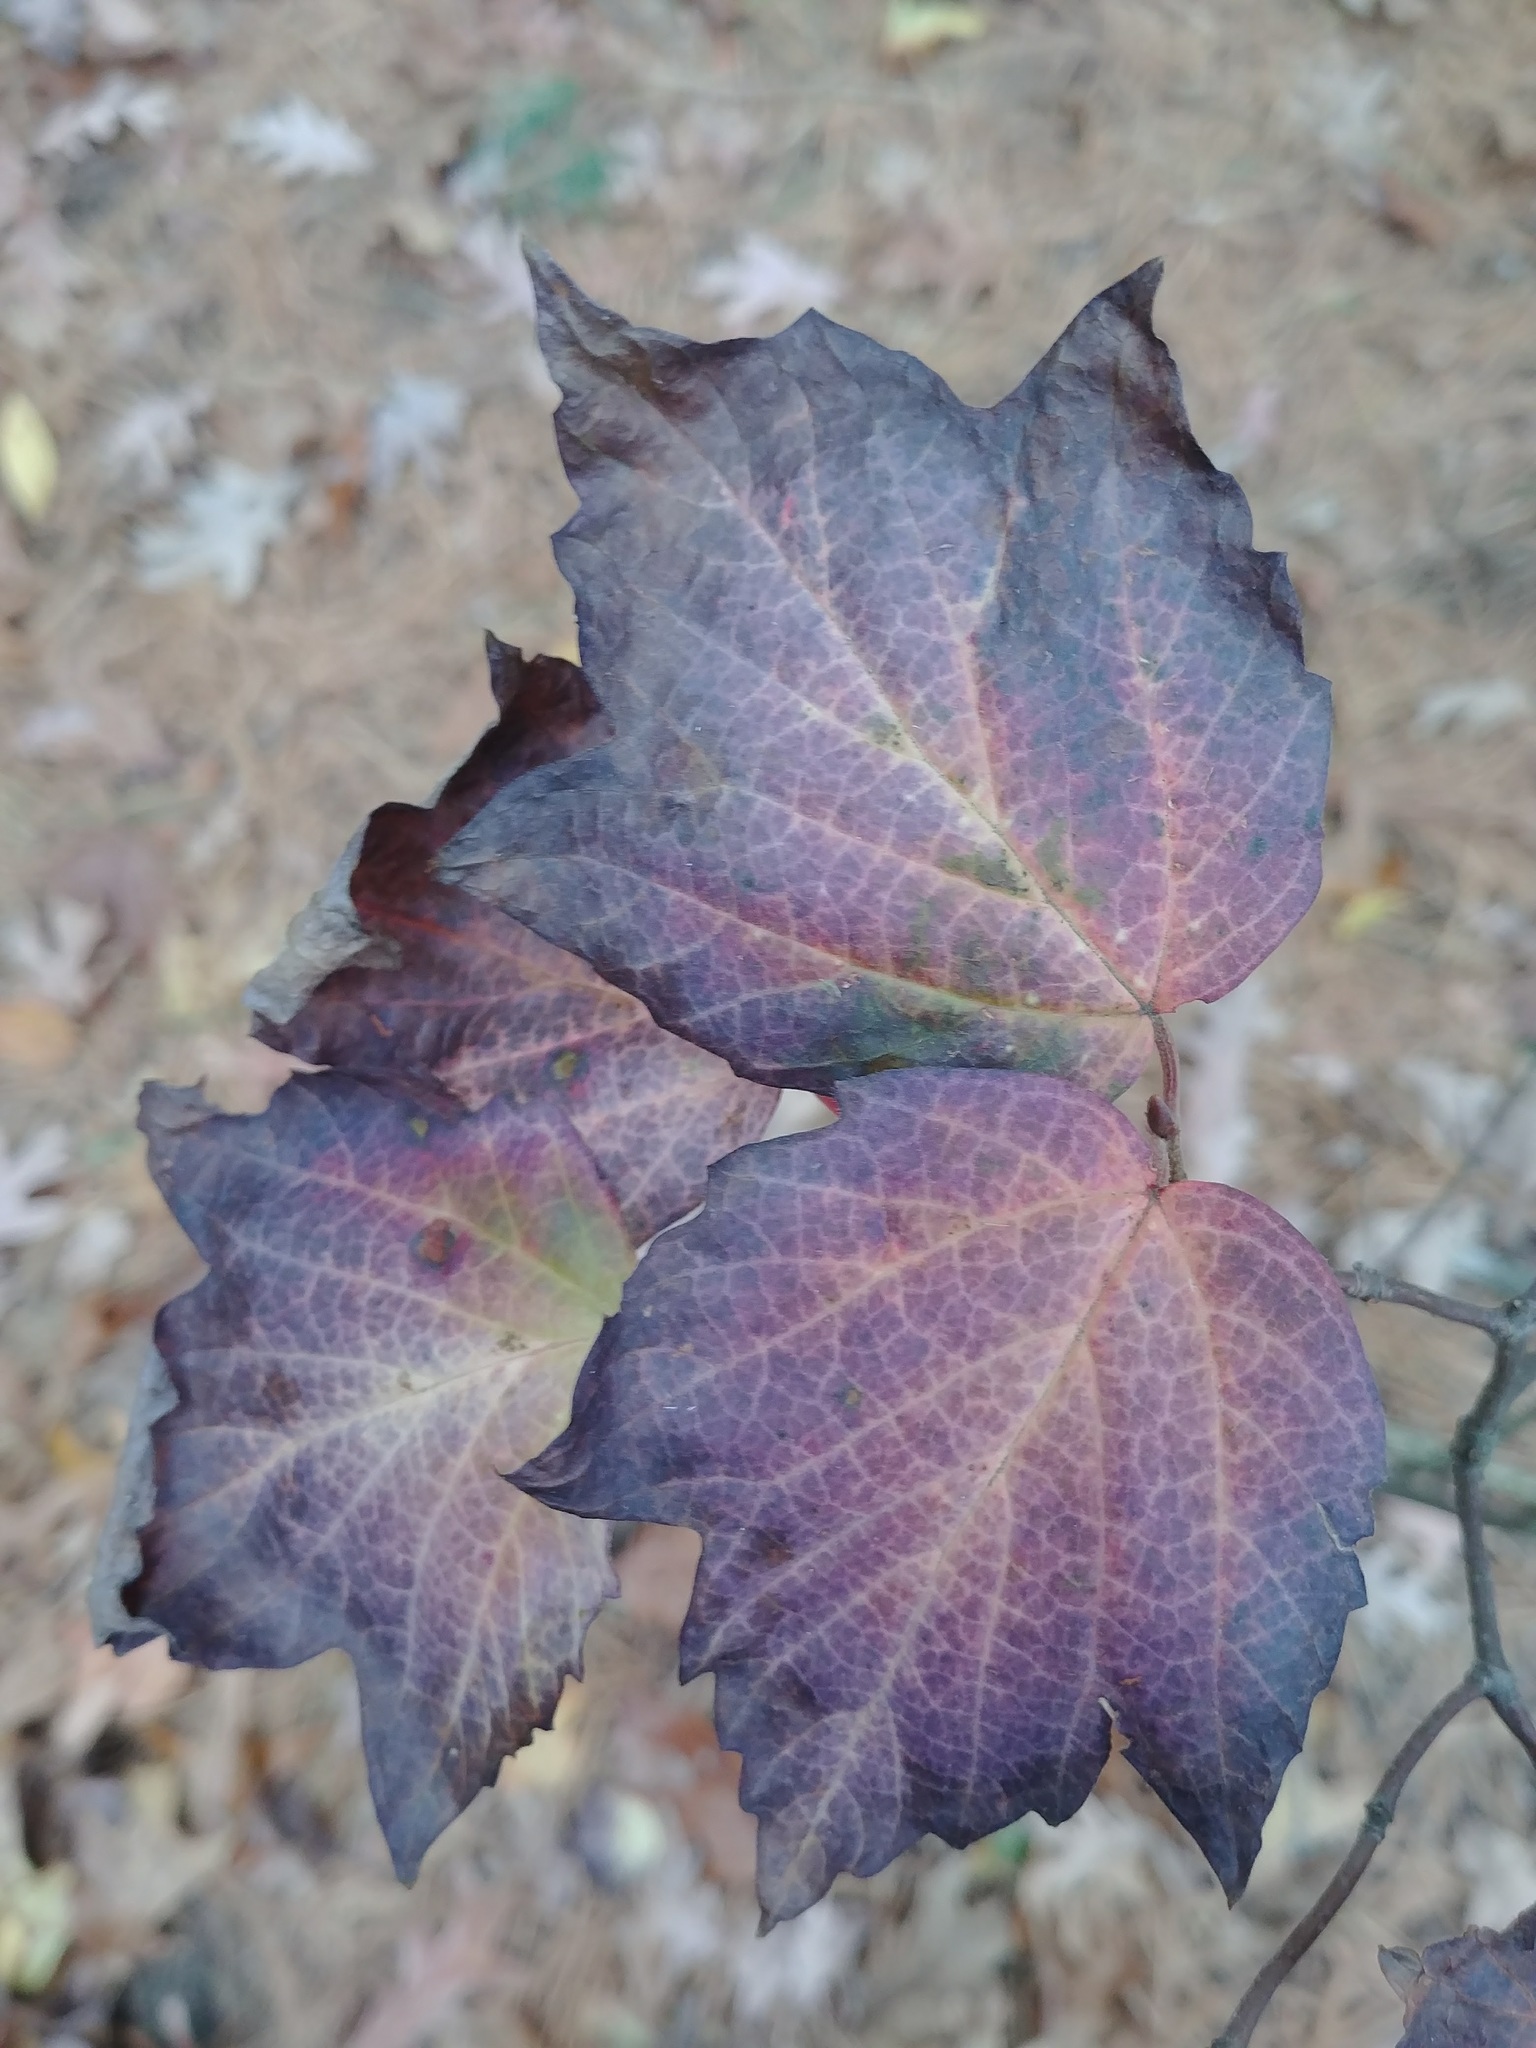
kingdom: Plantae
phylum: Tracheophyta
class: Magnoliopsida
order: Dipsacales
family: Viburnaceae
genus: Viburnum
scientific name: Viburnum acerifolium
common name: Dockmackie
